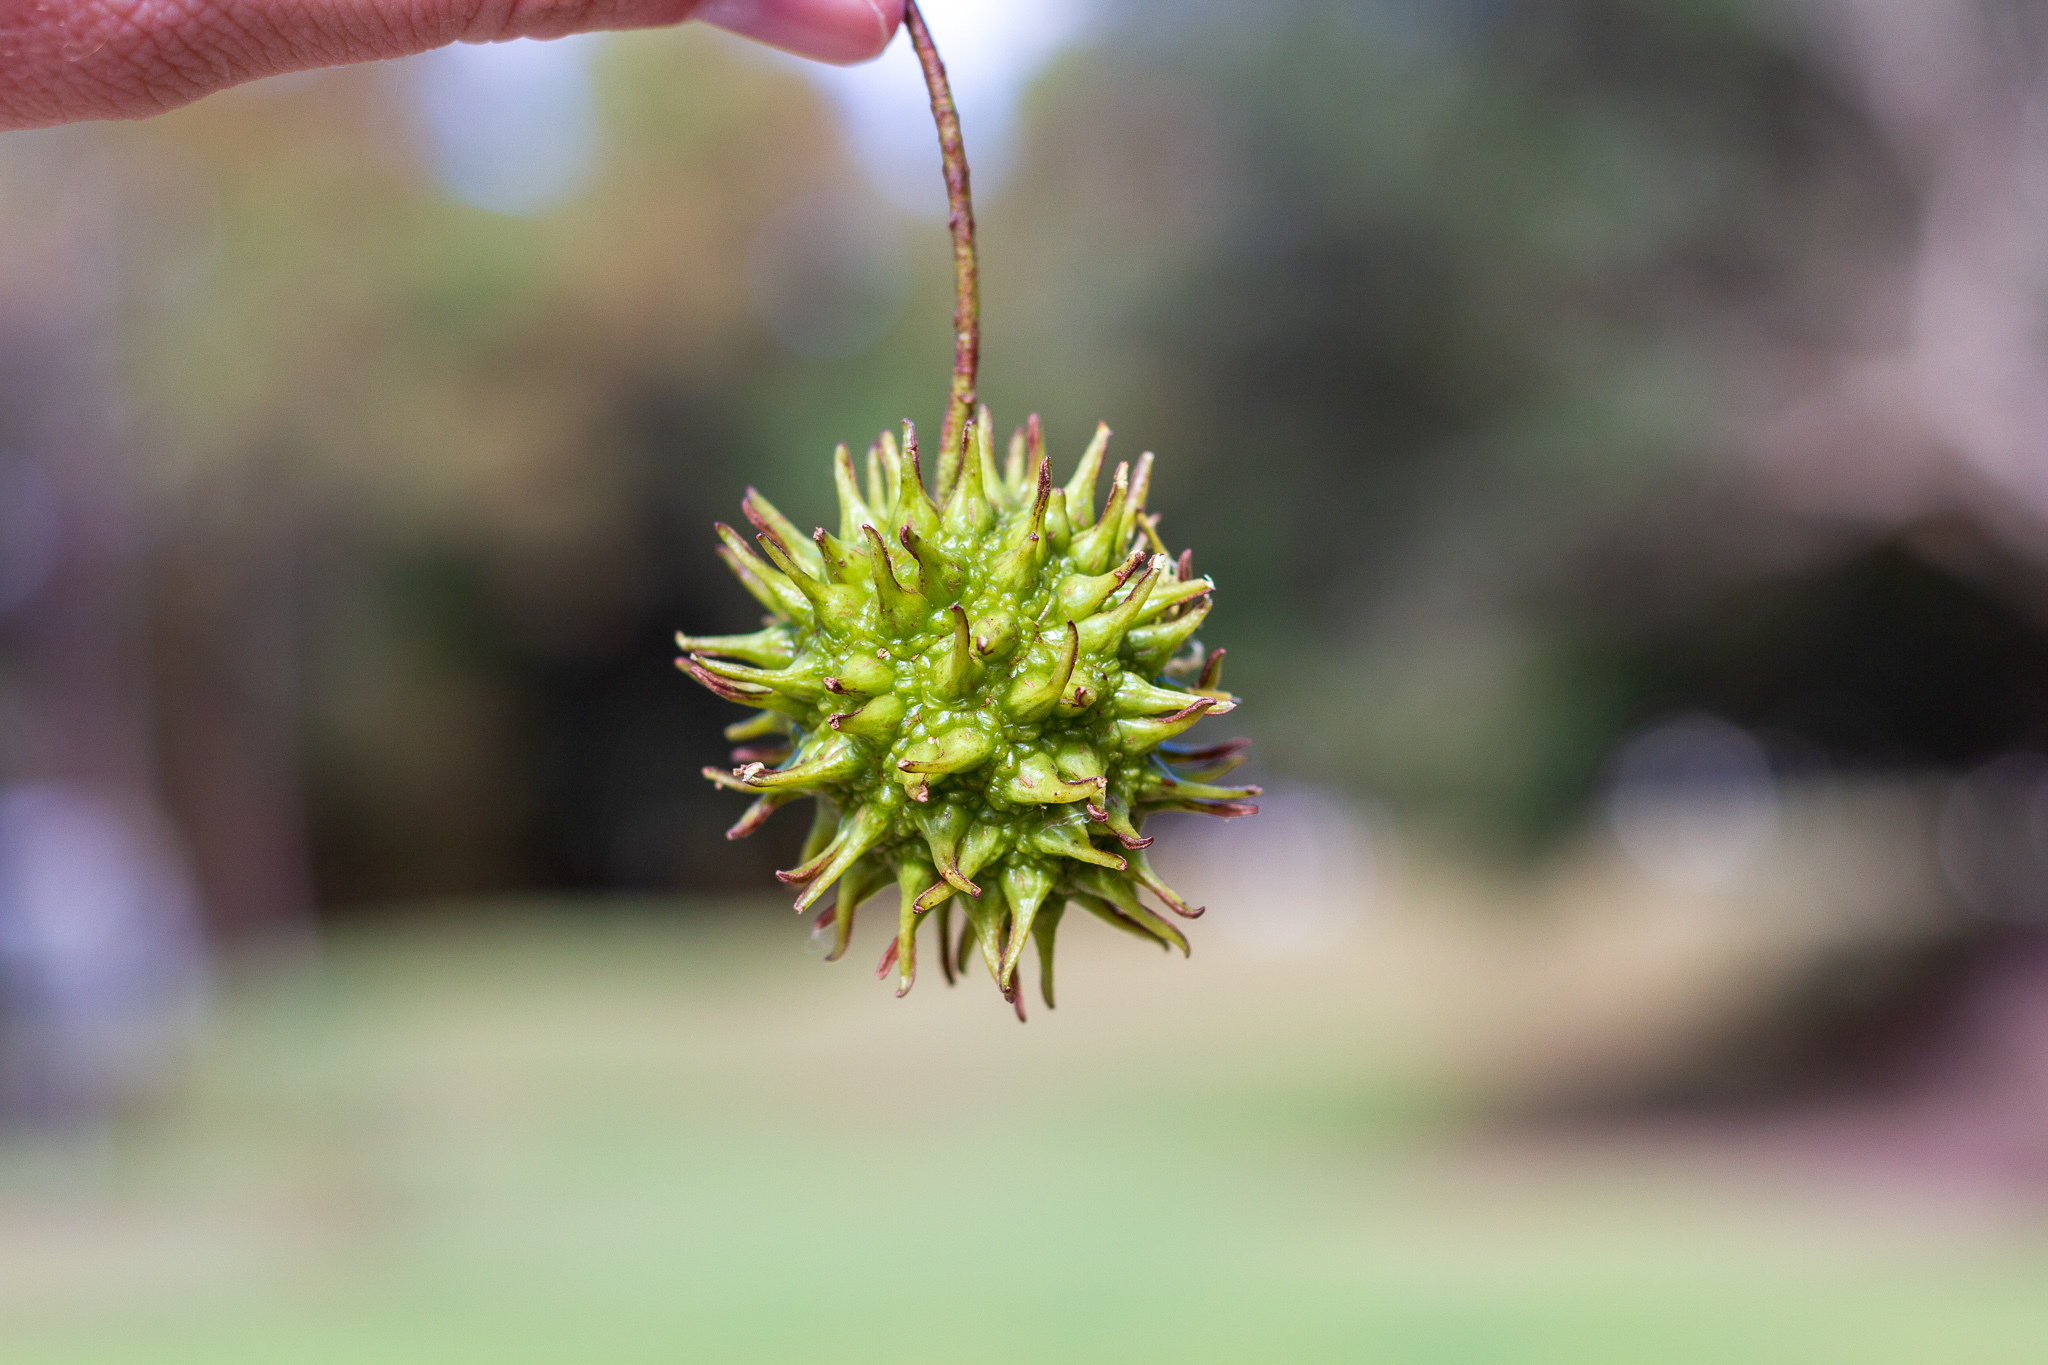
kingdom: Plantae
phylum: Tracheophyta
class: Magnoliopsida
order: Saxifragales
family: Altingiaceae
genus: Liquidambar
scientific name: Liquidambar styraciflua
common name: Sweet gum
